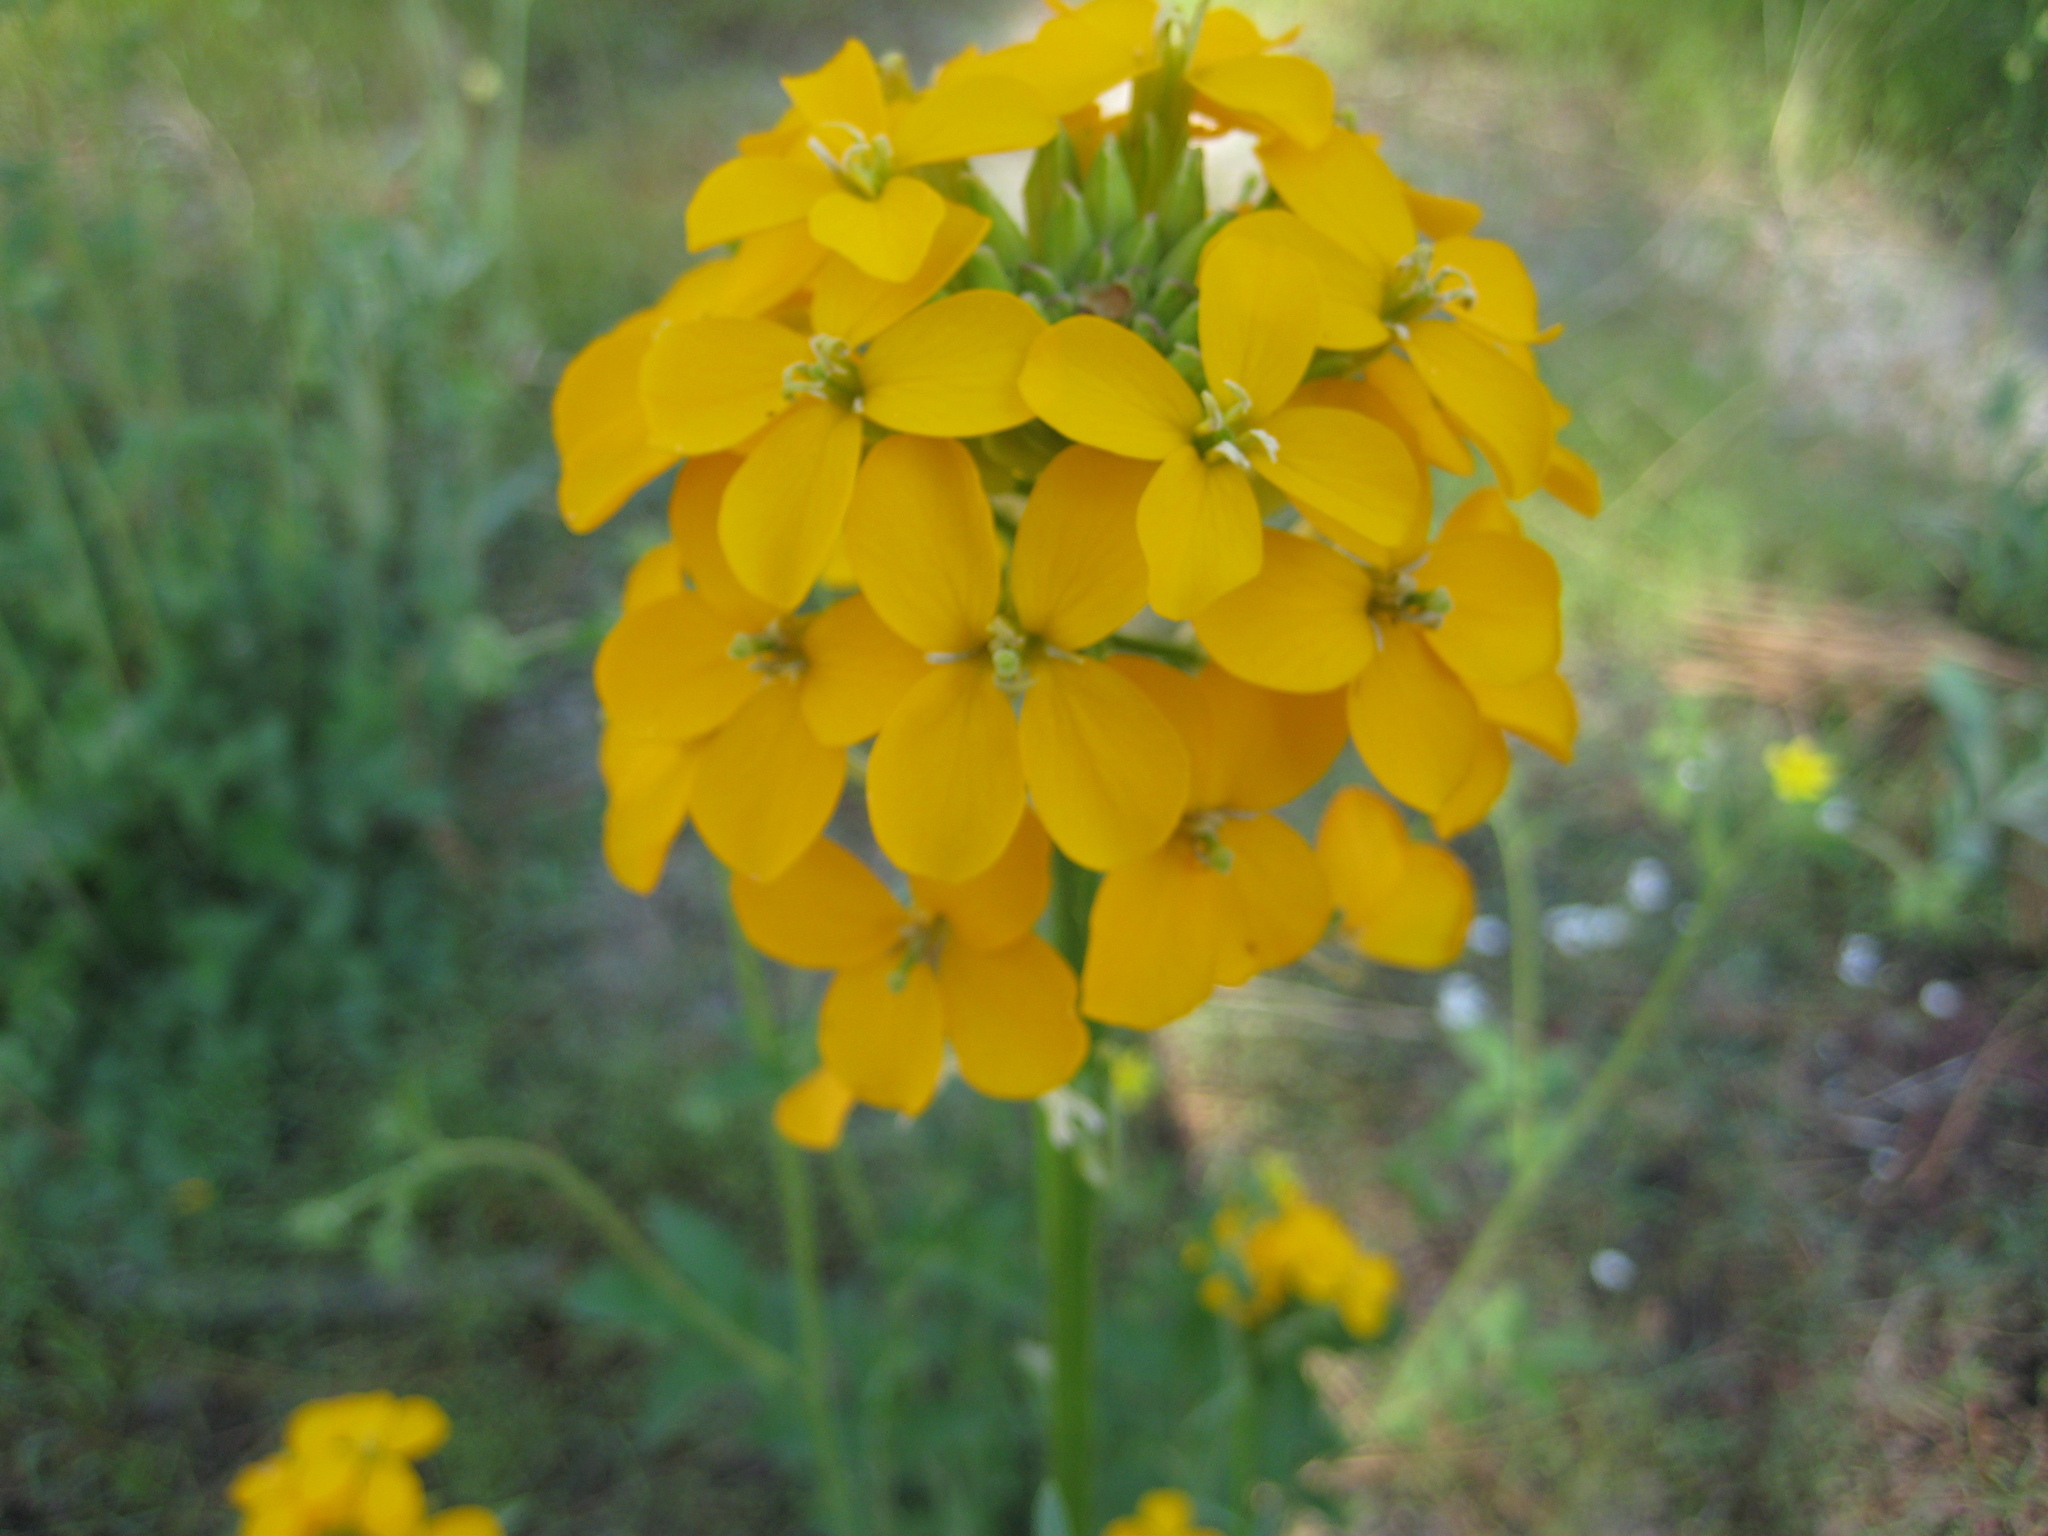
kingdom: Plantae
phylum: Tracheophyta
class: Magnoliopsida
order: Brassicales
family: Brassicaceae
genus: Erysimum
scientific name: Erysimum capitatum
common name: Western wallflower
